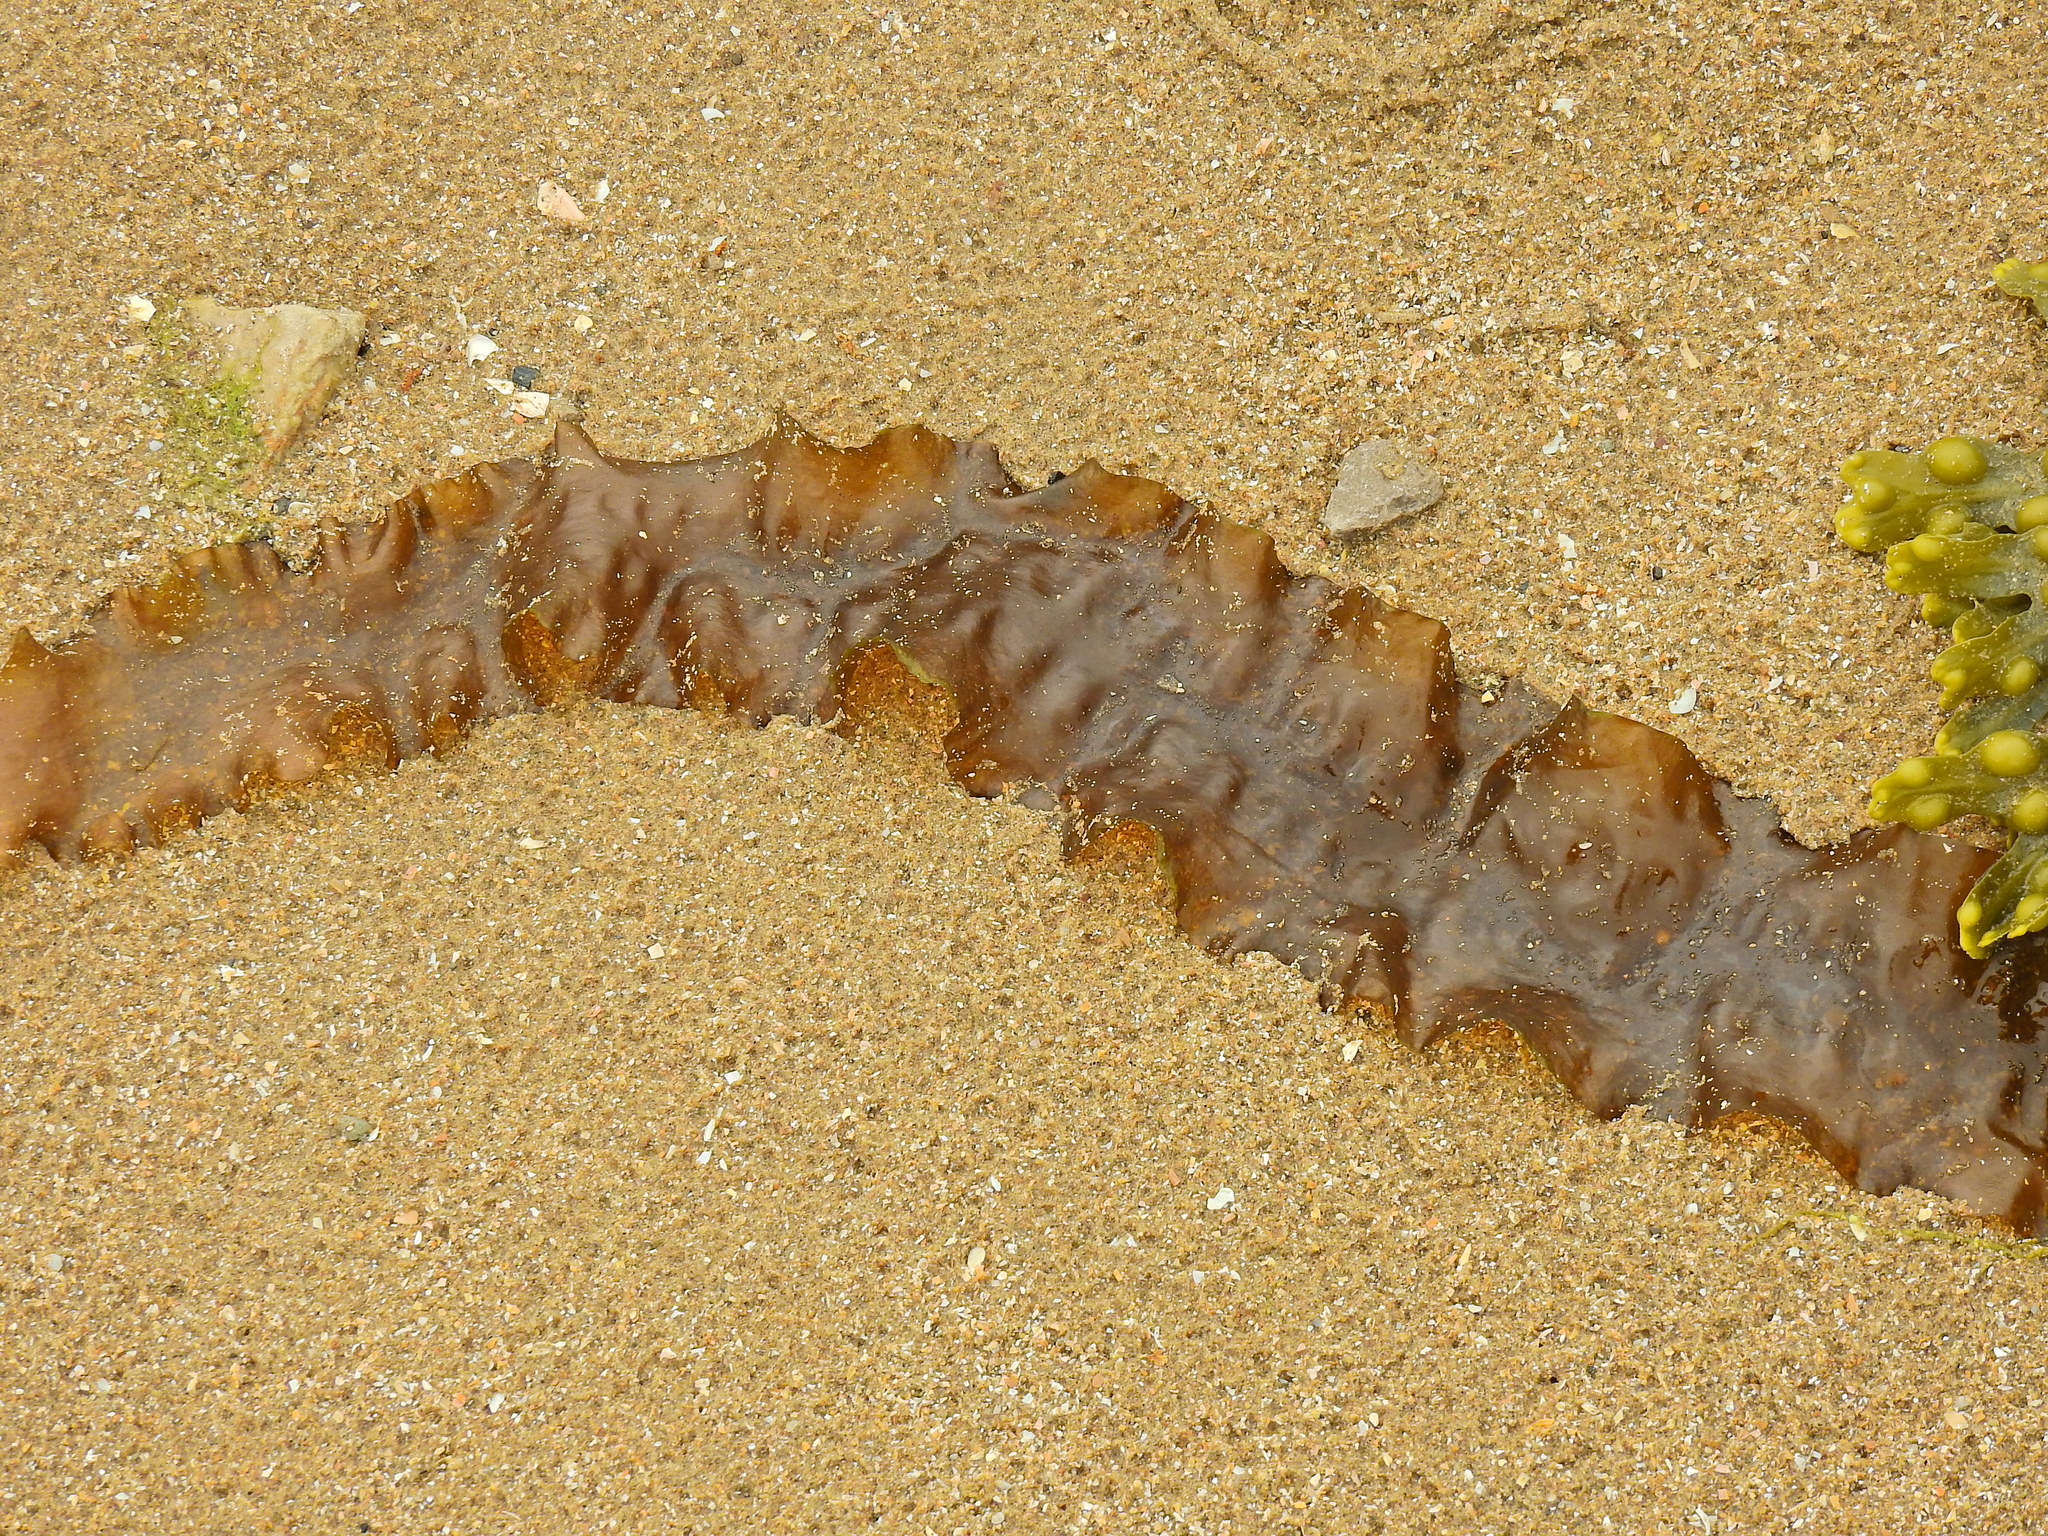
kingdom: Chromista
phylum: Ochrophyta
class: Phaeophyceae
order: Laminariales
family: Laminariaceae
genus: Saccharina
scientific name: Saccharina latissima
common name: Poor man's weather glass
